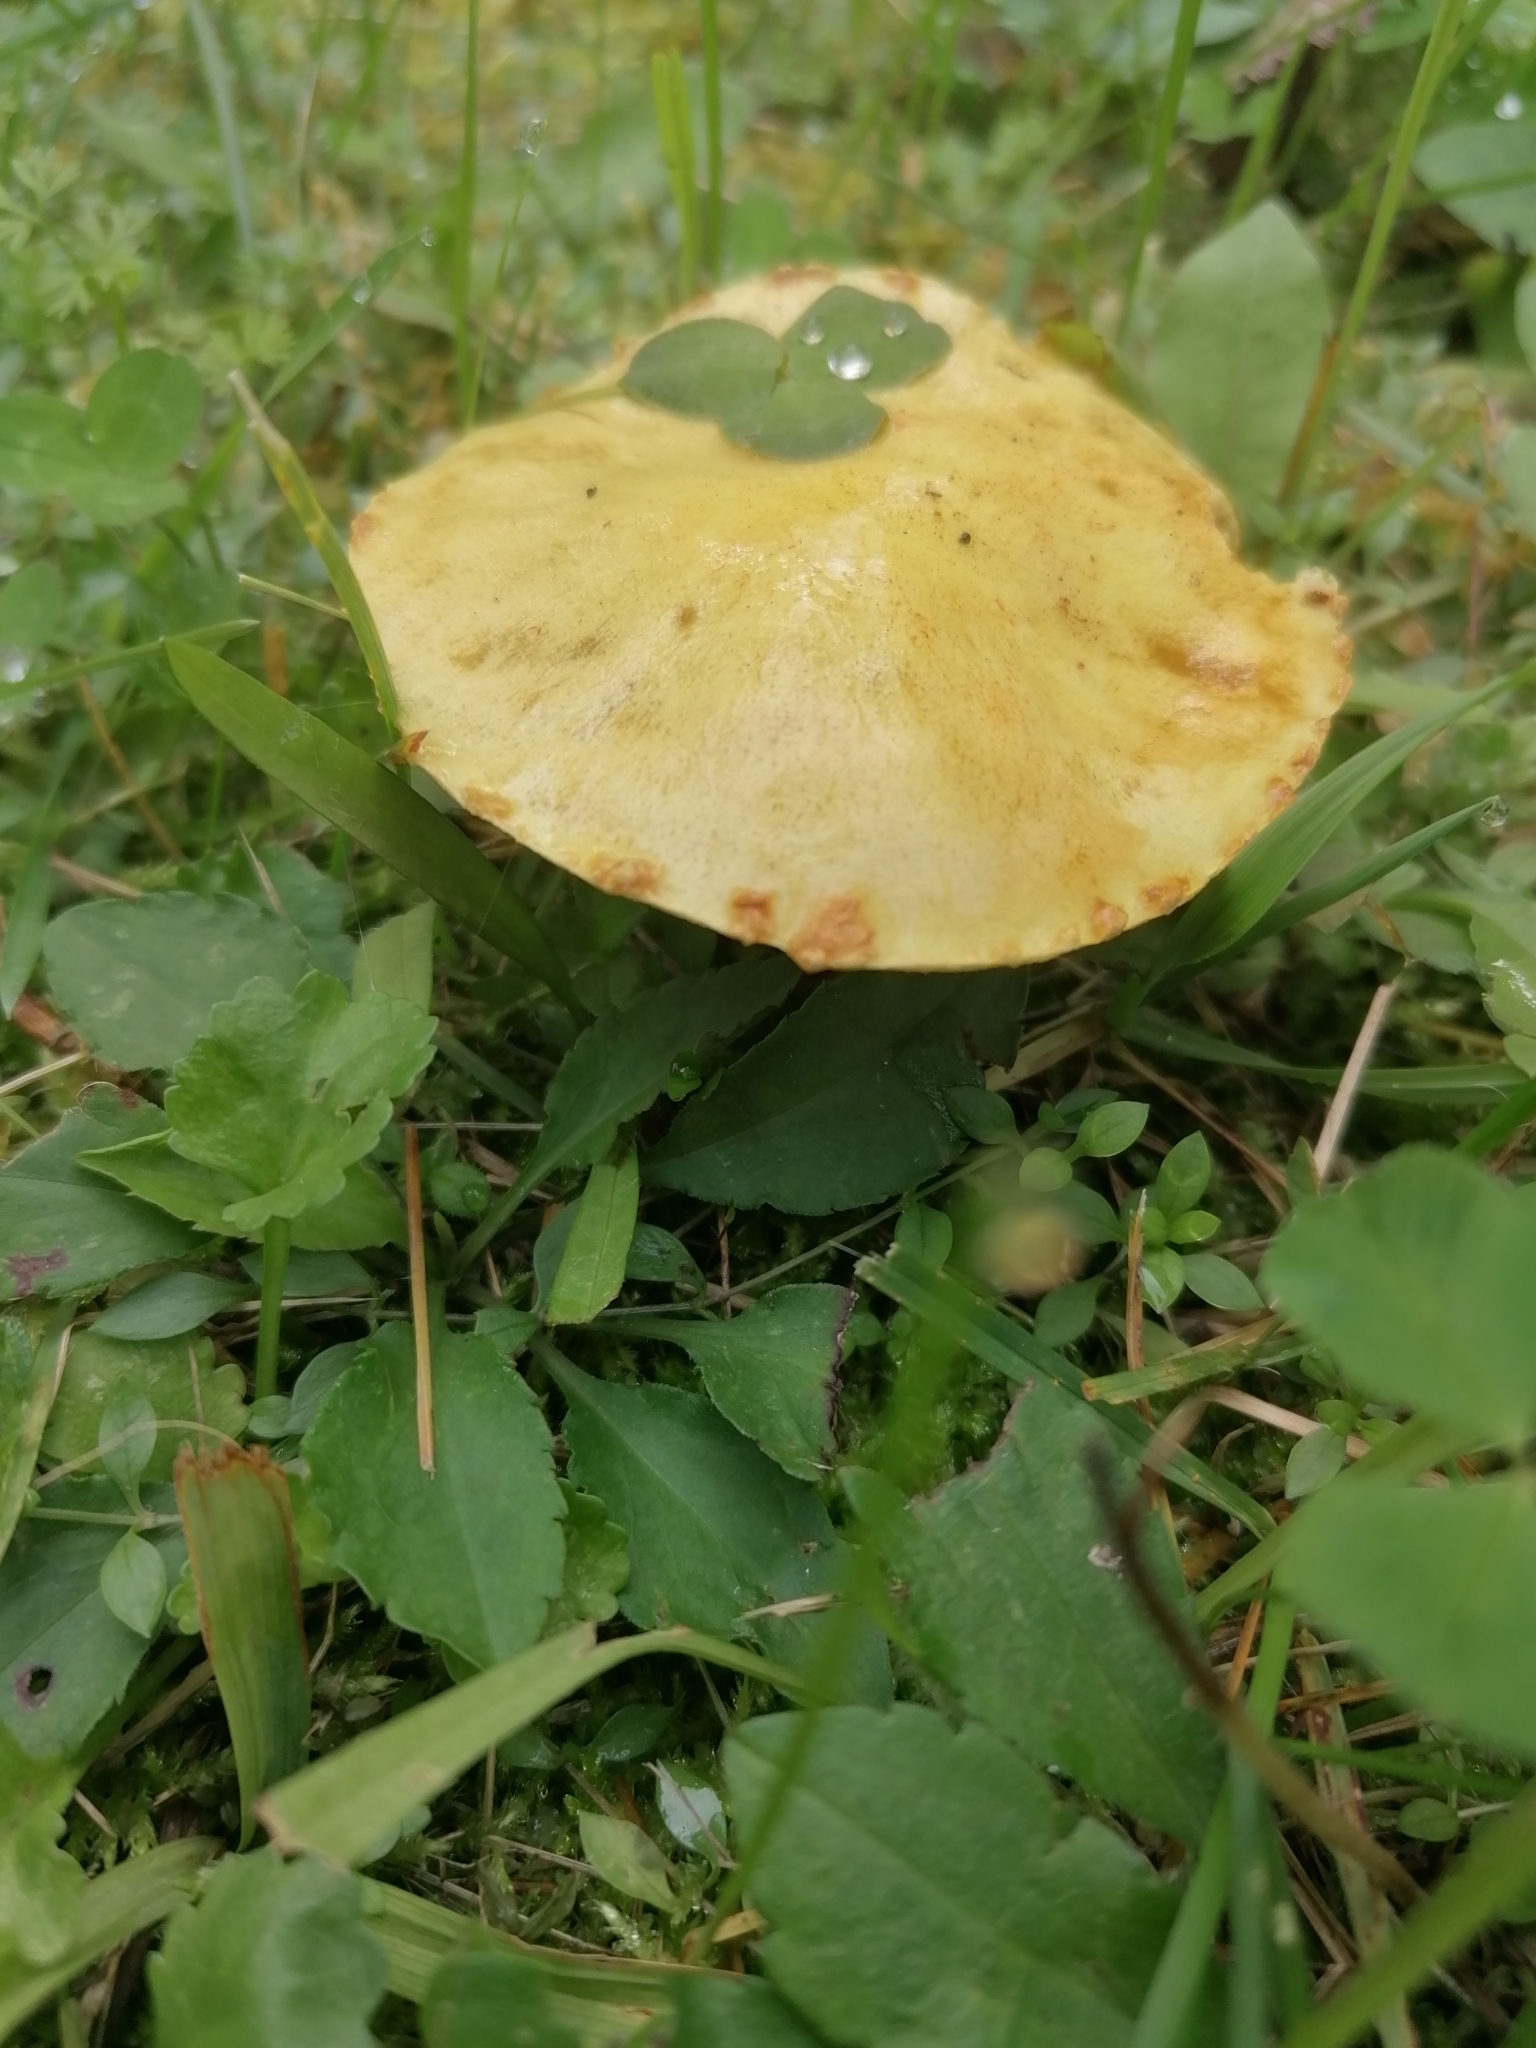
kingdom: Fungi
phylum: Basidiomycota
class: Agaricomycetes
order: Boletales
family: Suillaceae
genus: Suillus
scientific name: Suillus americanus
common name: Chicken fat mushroom
